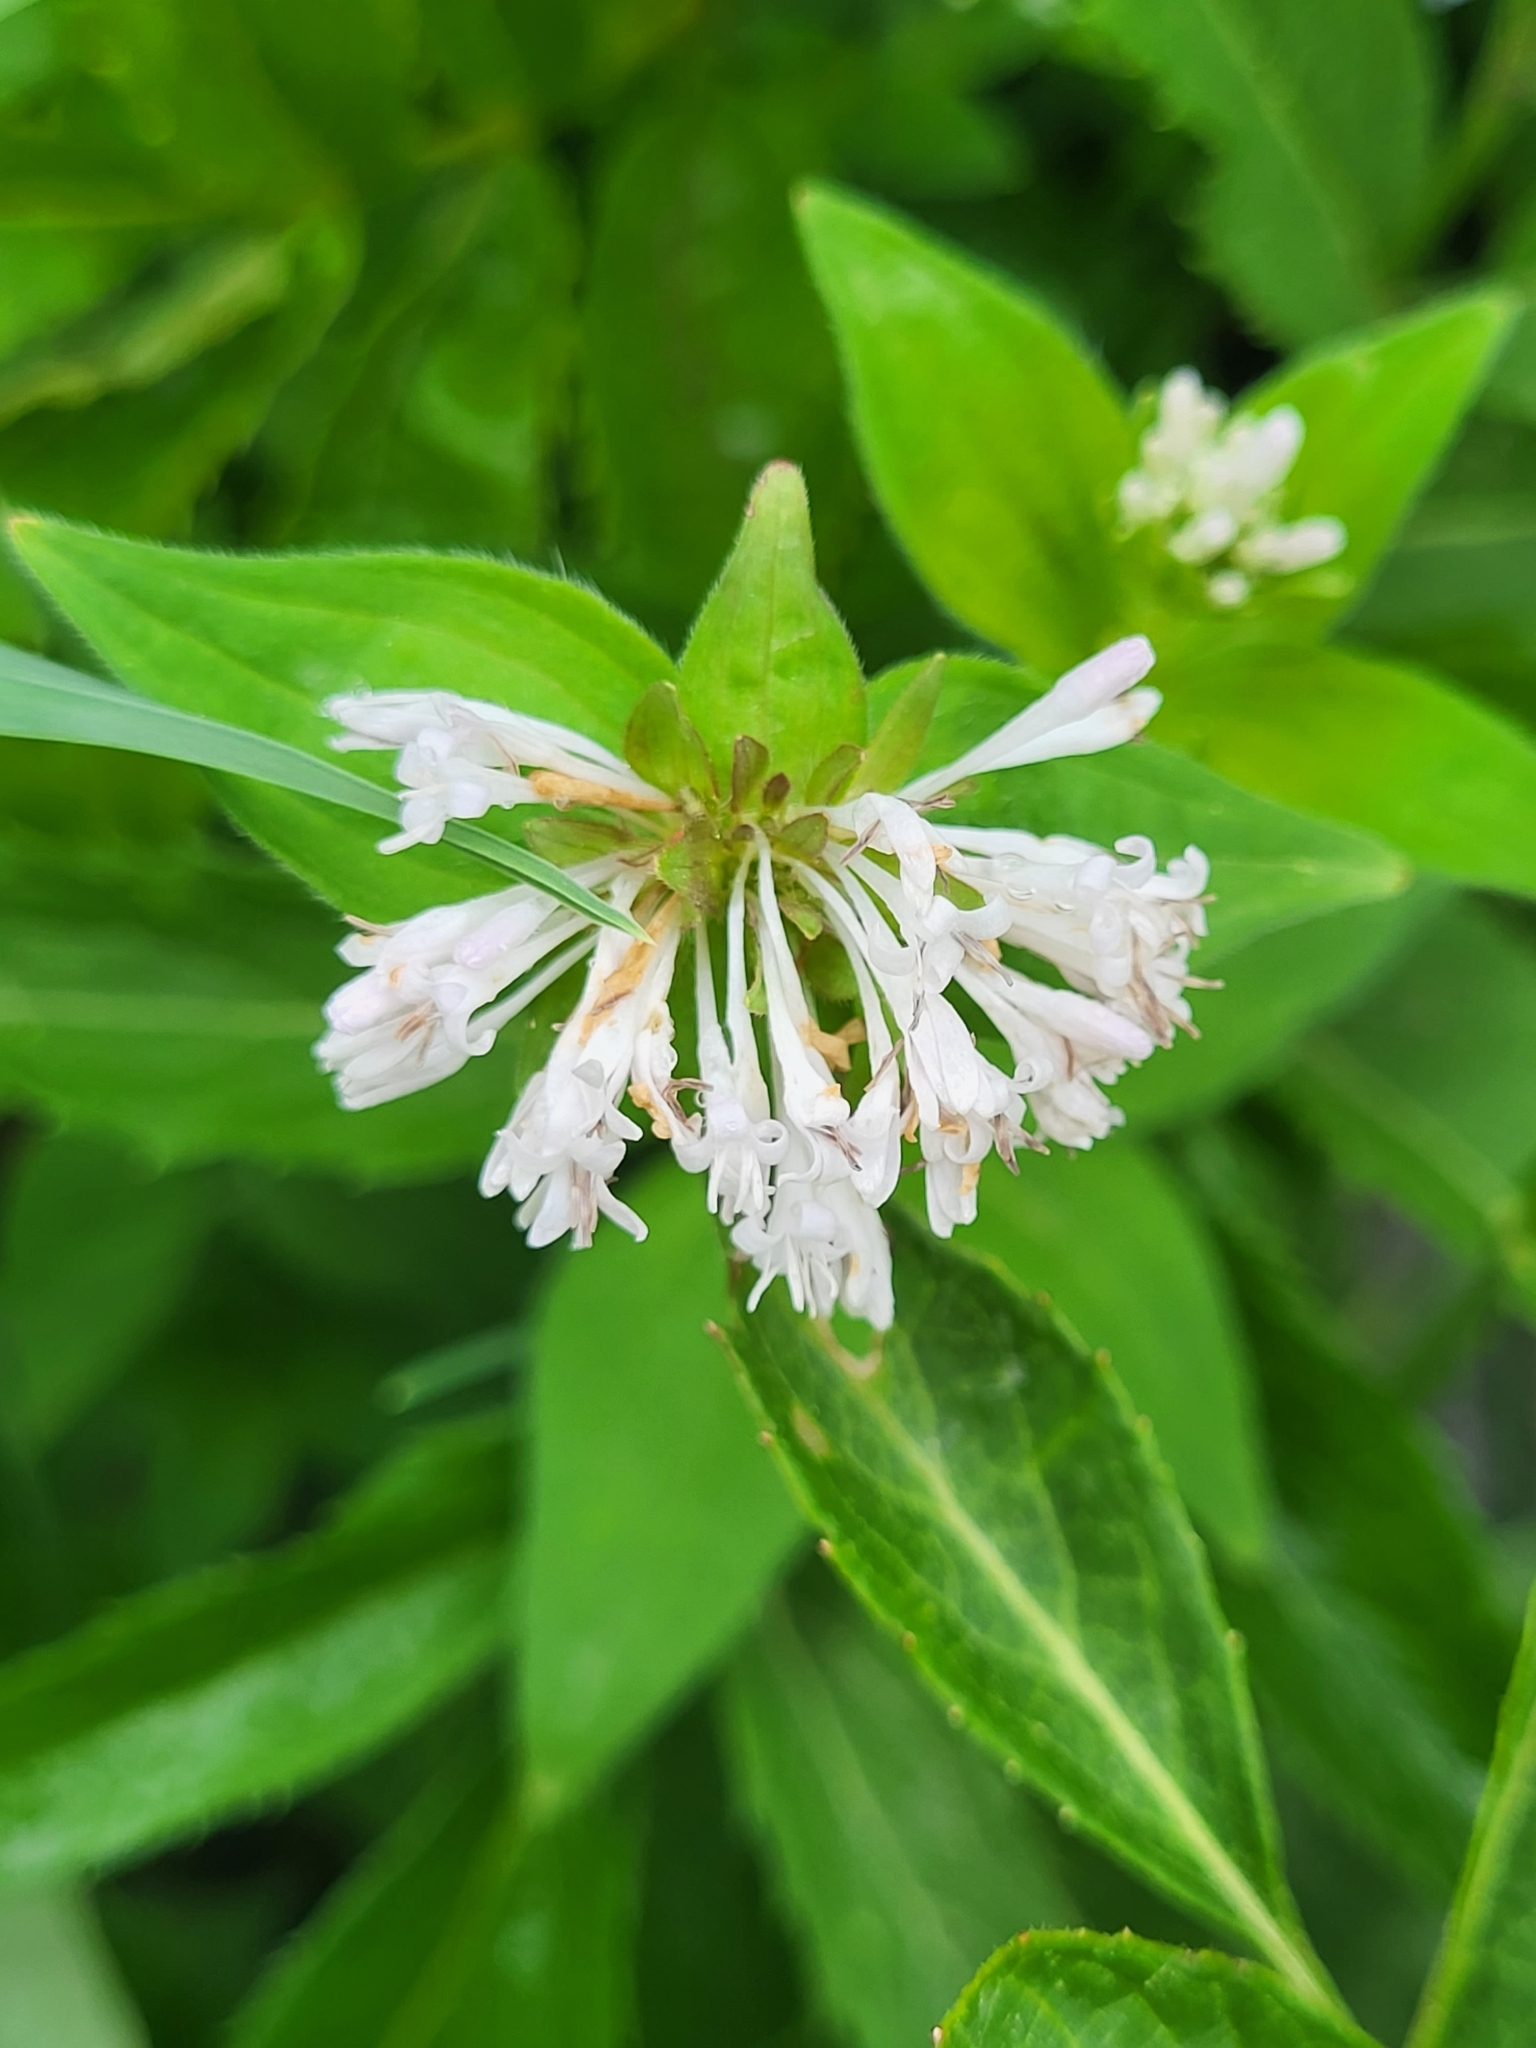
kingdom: Plantae
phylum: Tracheophyta
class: Magnoliopsida
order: Gentianales
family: Rubiaceae
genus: Asperula
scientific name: Asperula taurina
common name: Pink woodruff
